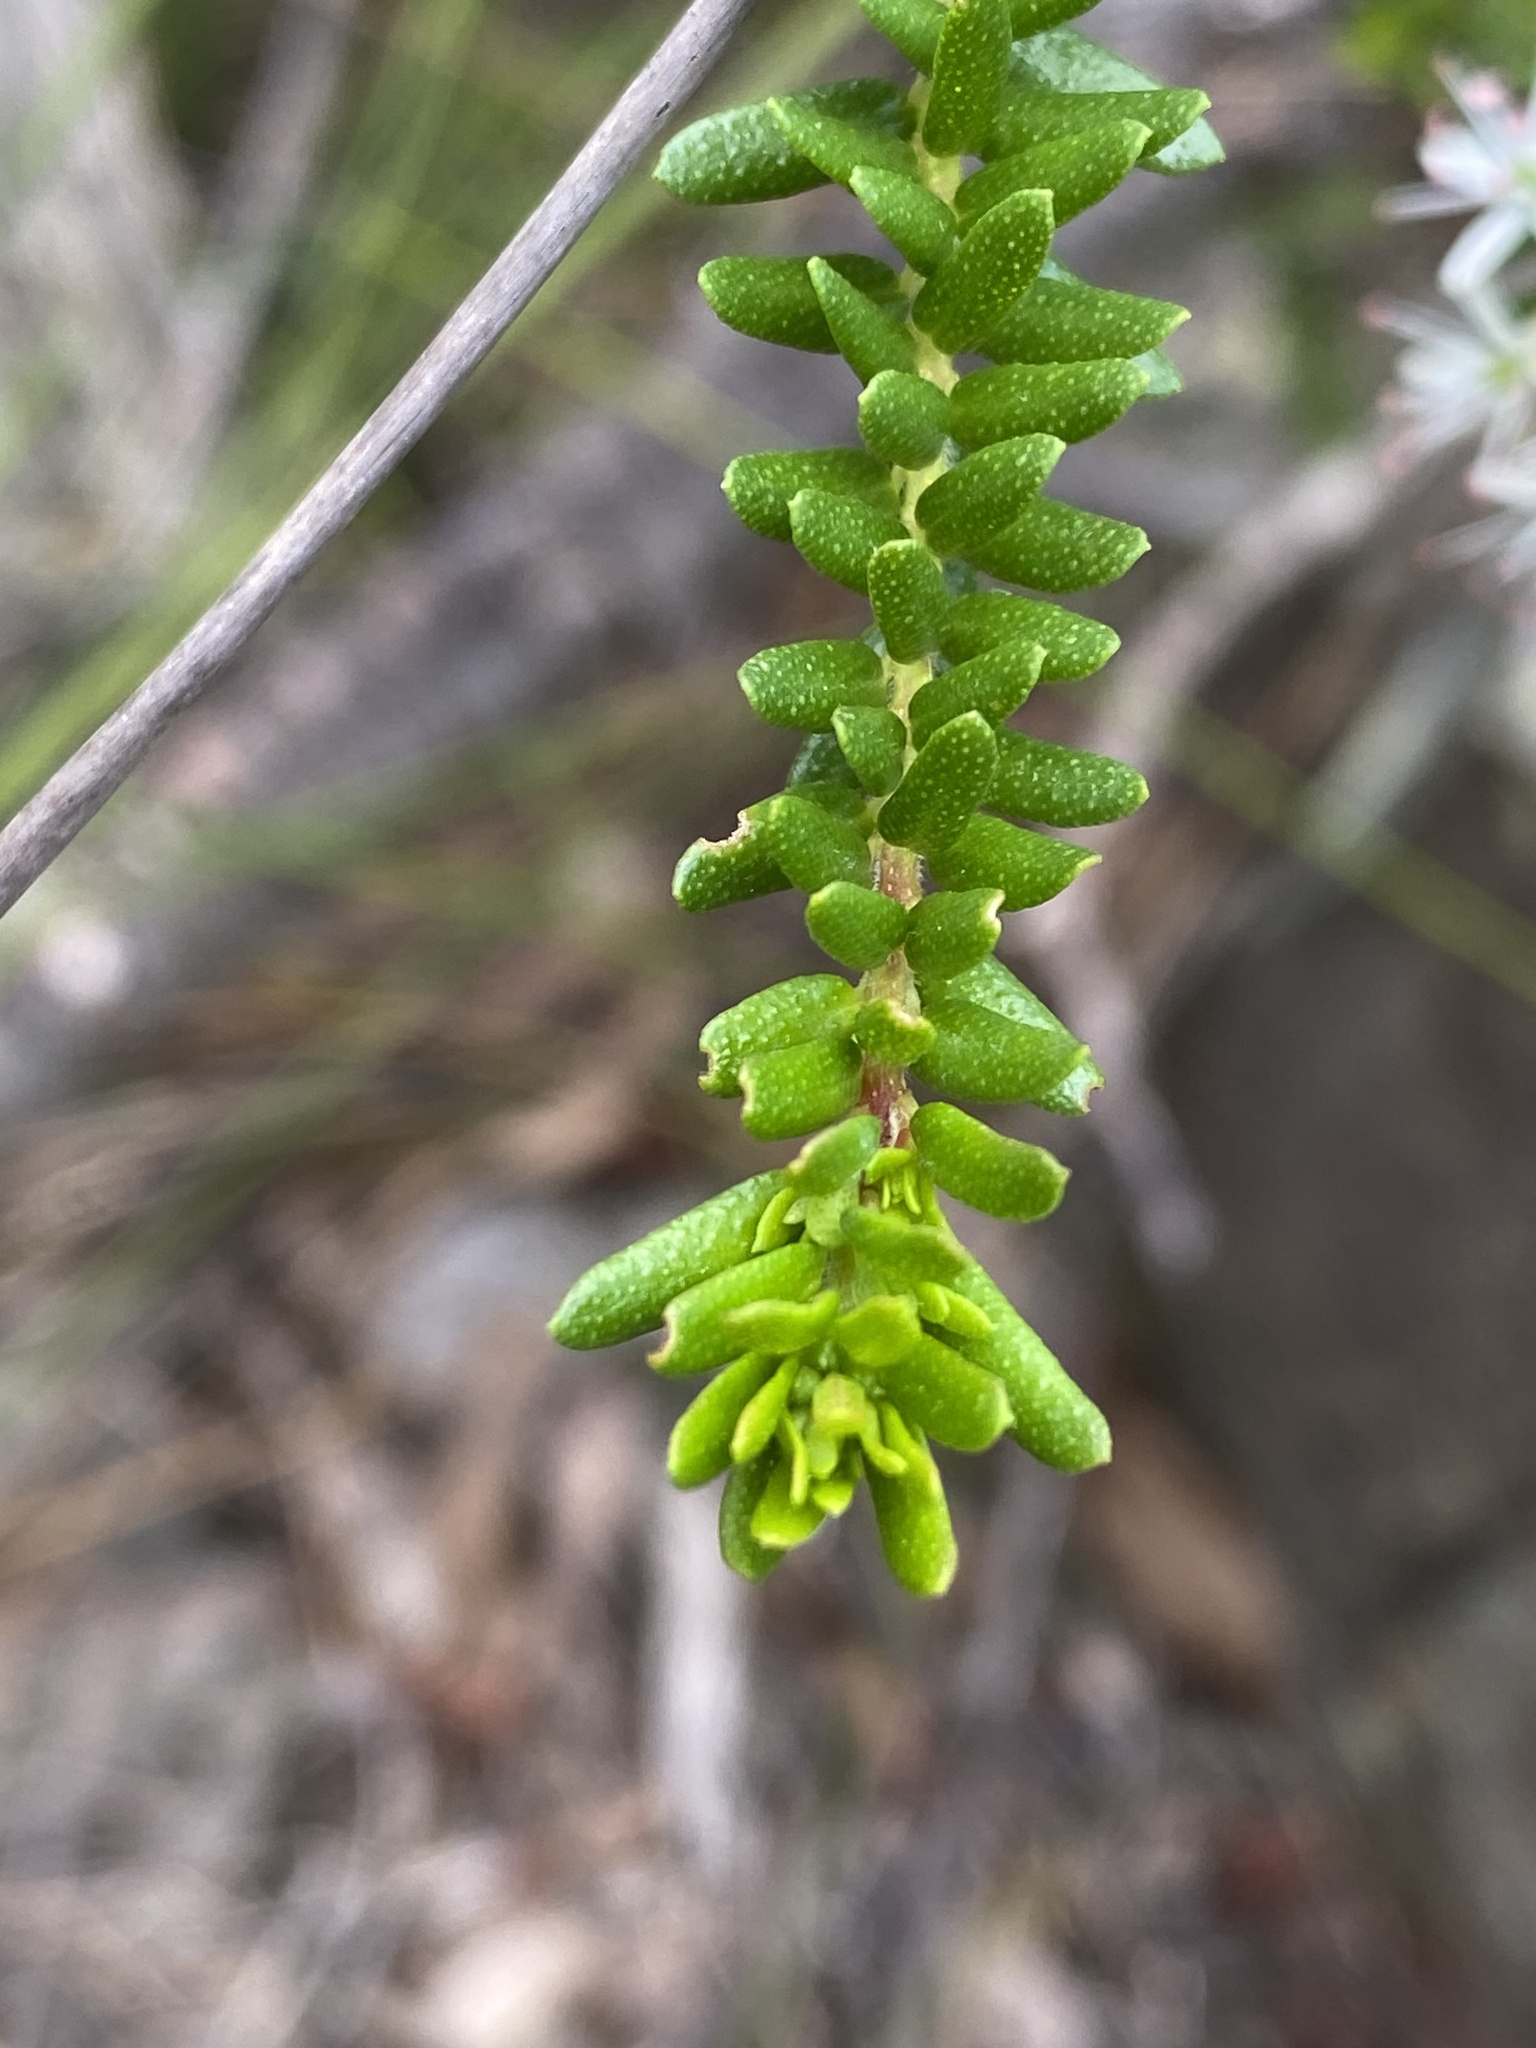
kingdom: Plantae
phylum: Tracheophyta
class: Magnoliopsida
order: Sapindales
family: Rutaceae
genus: Leionema
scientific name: Leionema gracile
